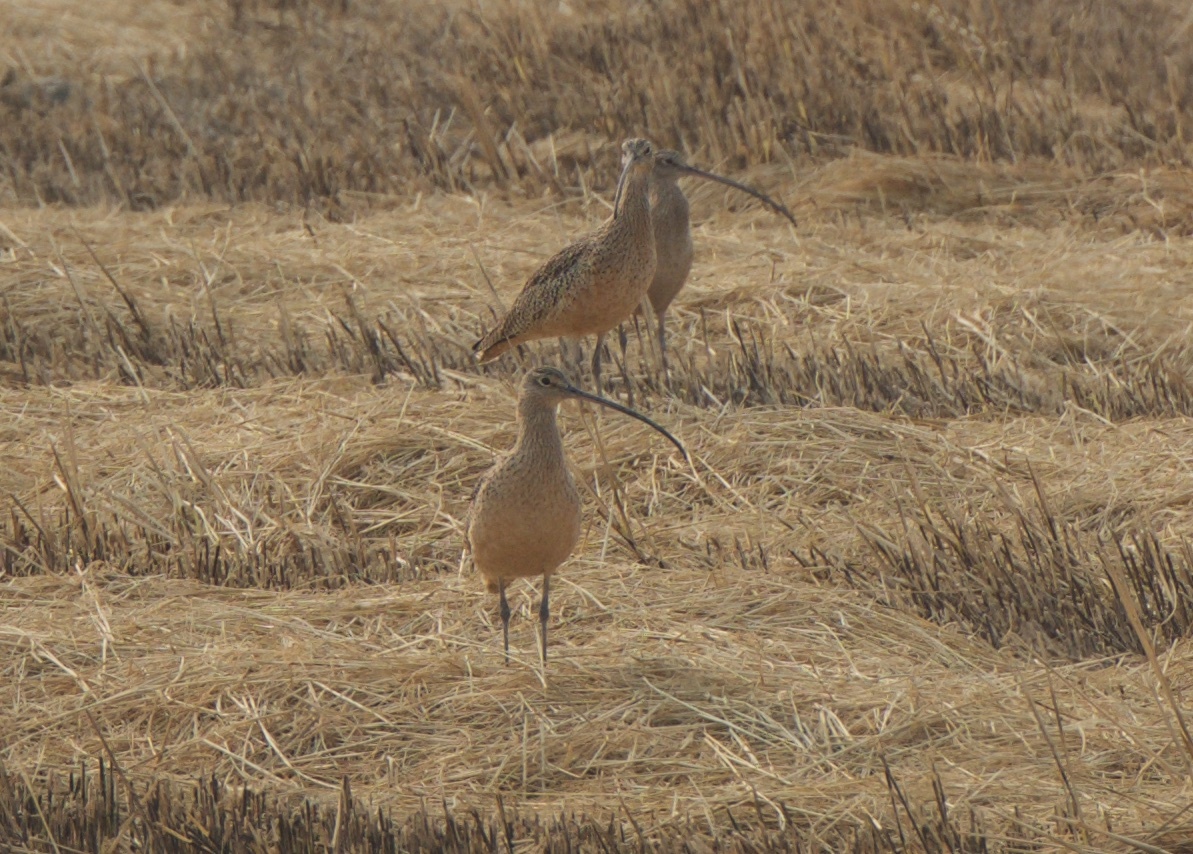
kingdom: Animalia
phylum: Chordata
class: Aves
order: Charadriiformes
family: Scolopacidae
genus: Numenius
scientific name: Numenius americanus
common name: Long-billed curlew
